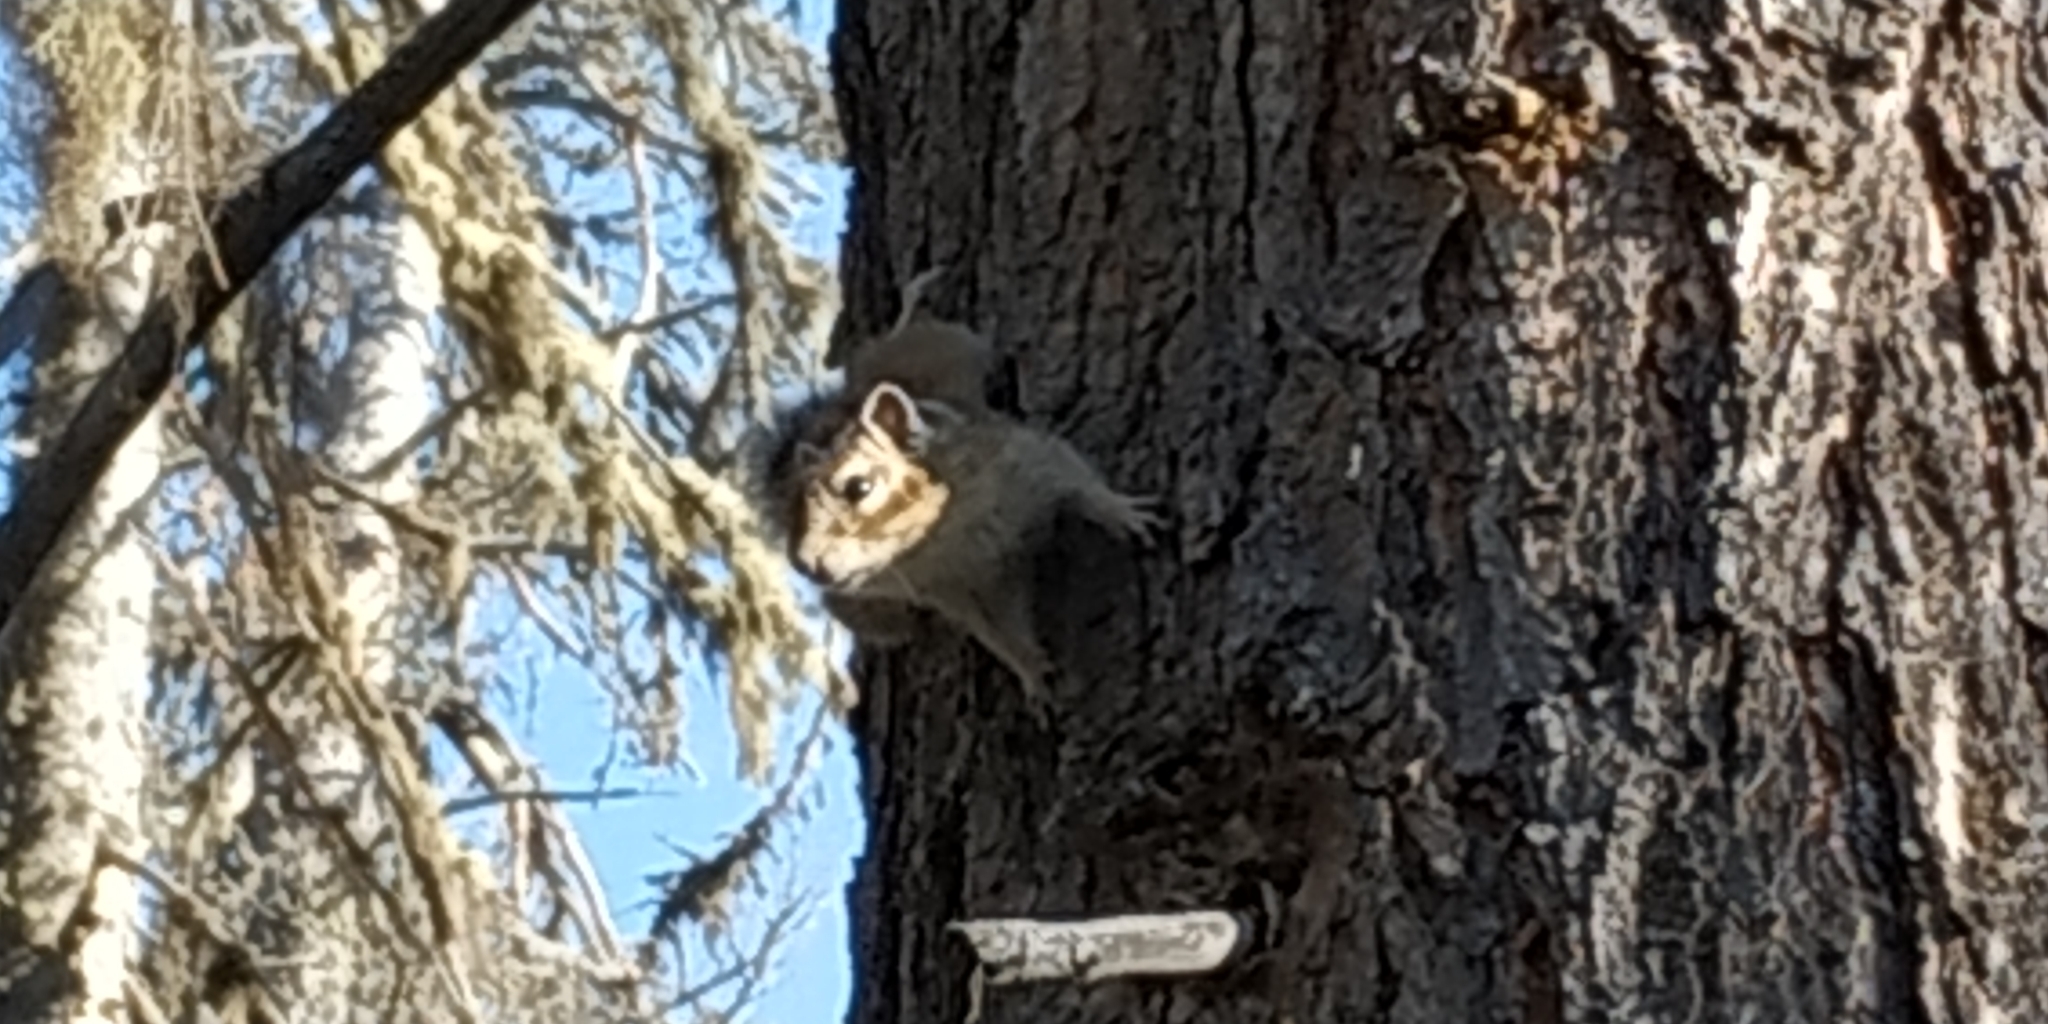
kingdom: Animalia
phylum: Chordata
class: Mammalia
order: Rodentia
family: Sciuridae
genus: Tamias
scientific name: Tamias sibiricus
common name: Siberian chipmunk
